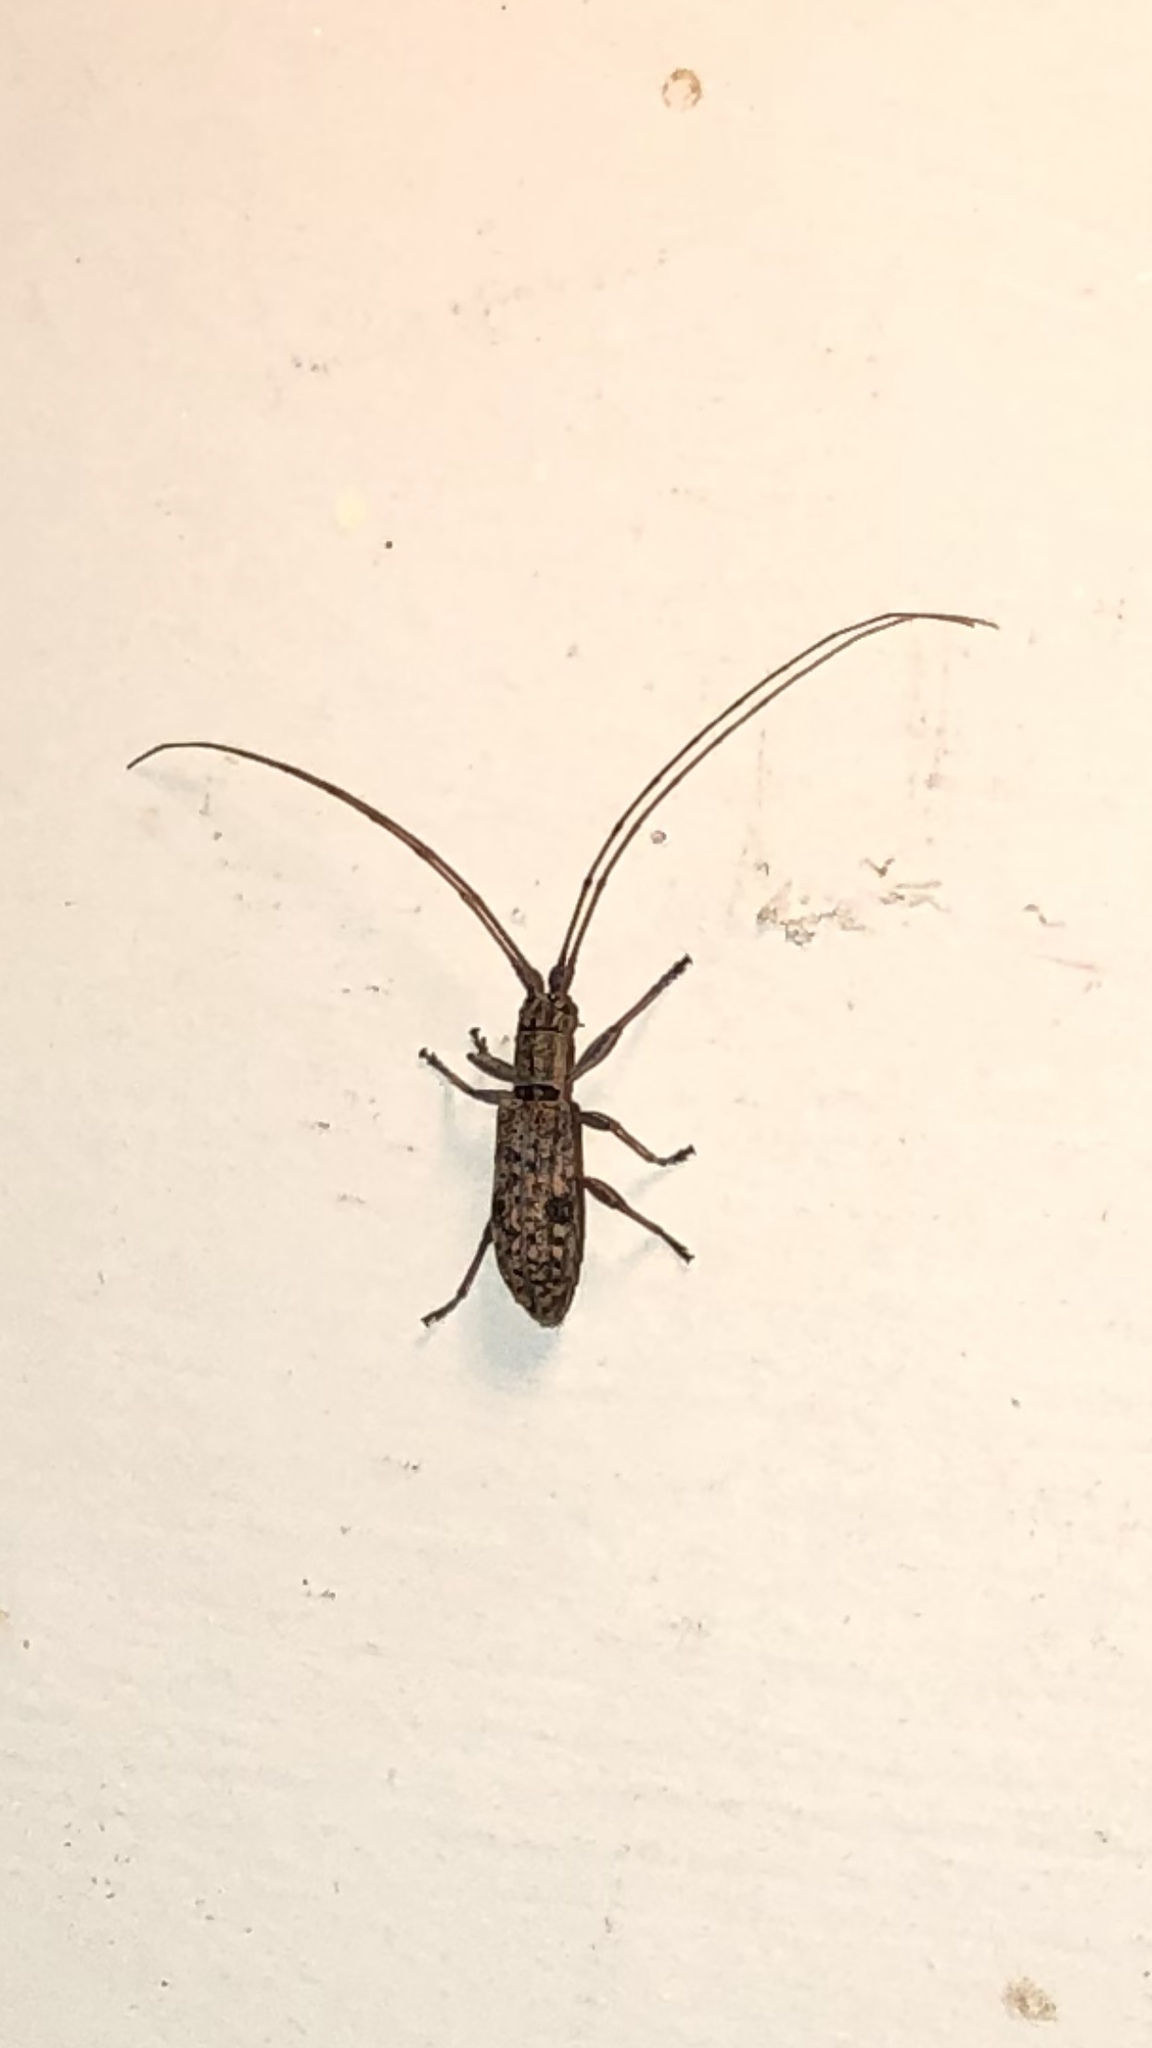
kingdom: Animalia
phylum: Arthropoda
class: Insecta
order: Coleoptera
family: Cerambycidae
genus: Dorcaschema
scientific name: Dorcaschema alternatum
